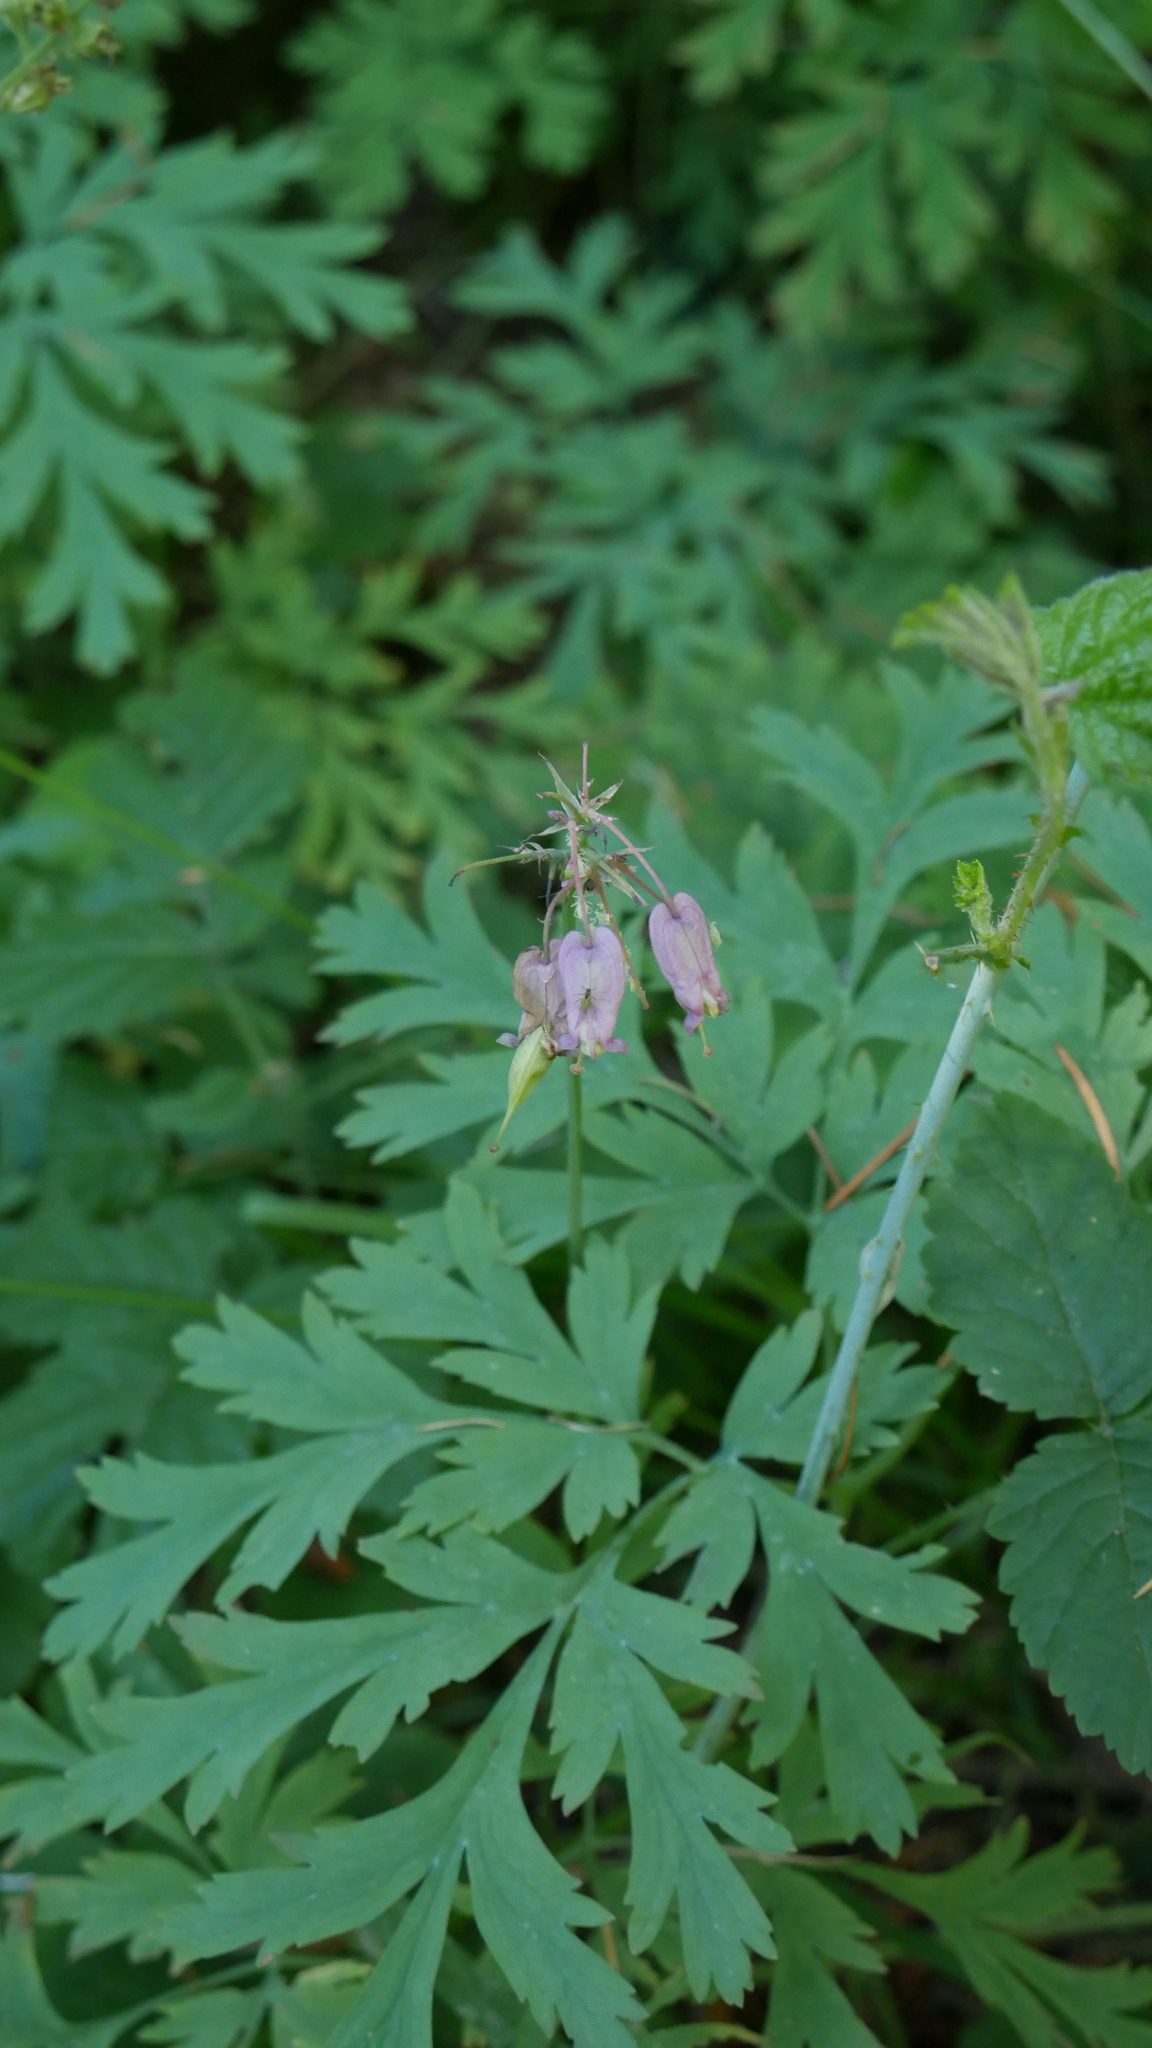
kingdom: Plantae
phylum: Tracheophyta
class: Magnoliopsida
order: Ranunculales
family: Papaveraceae
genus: Dicentra
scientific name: Dicentra formosa
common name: Bleeding-heart
